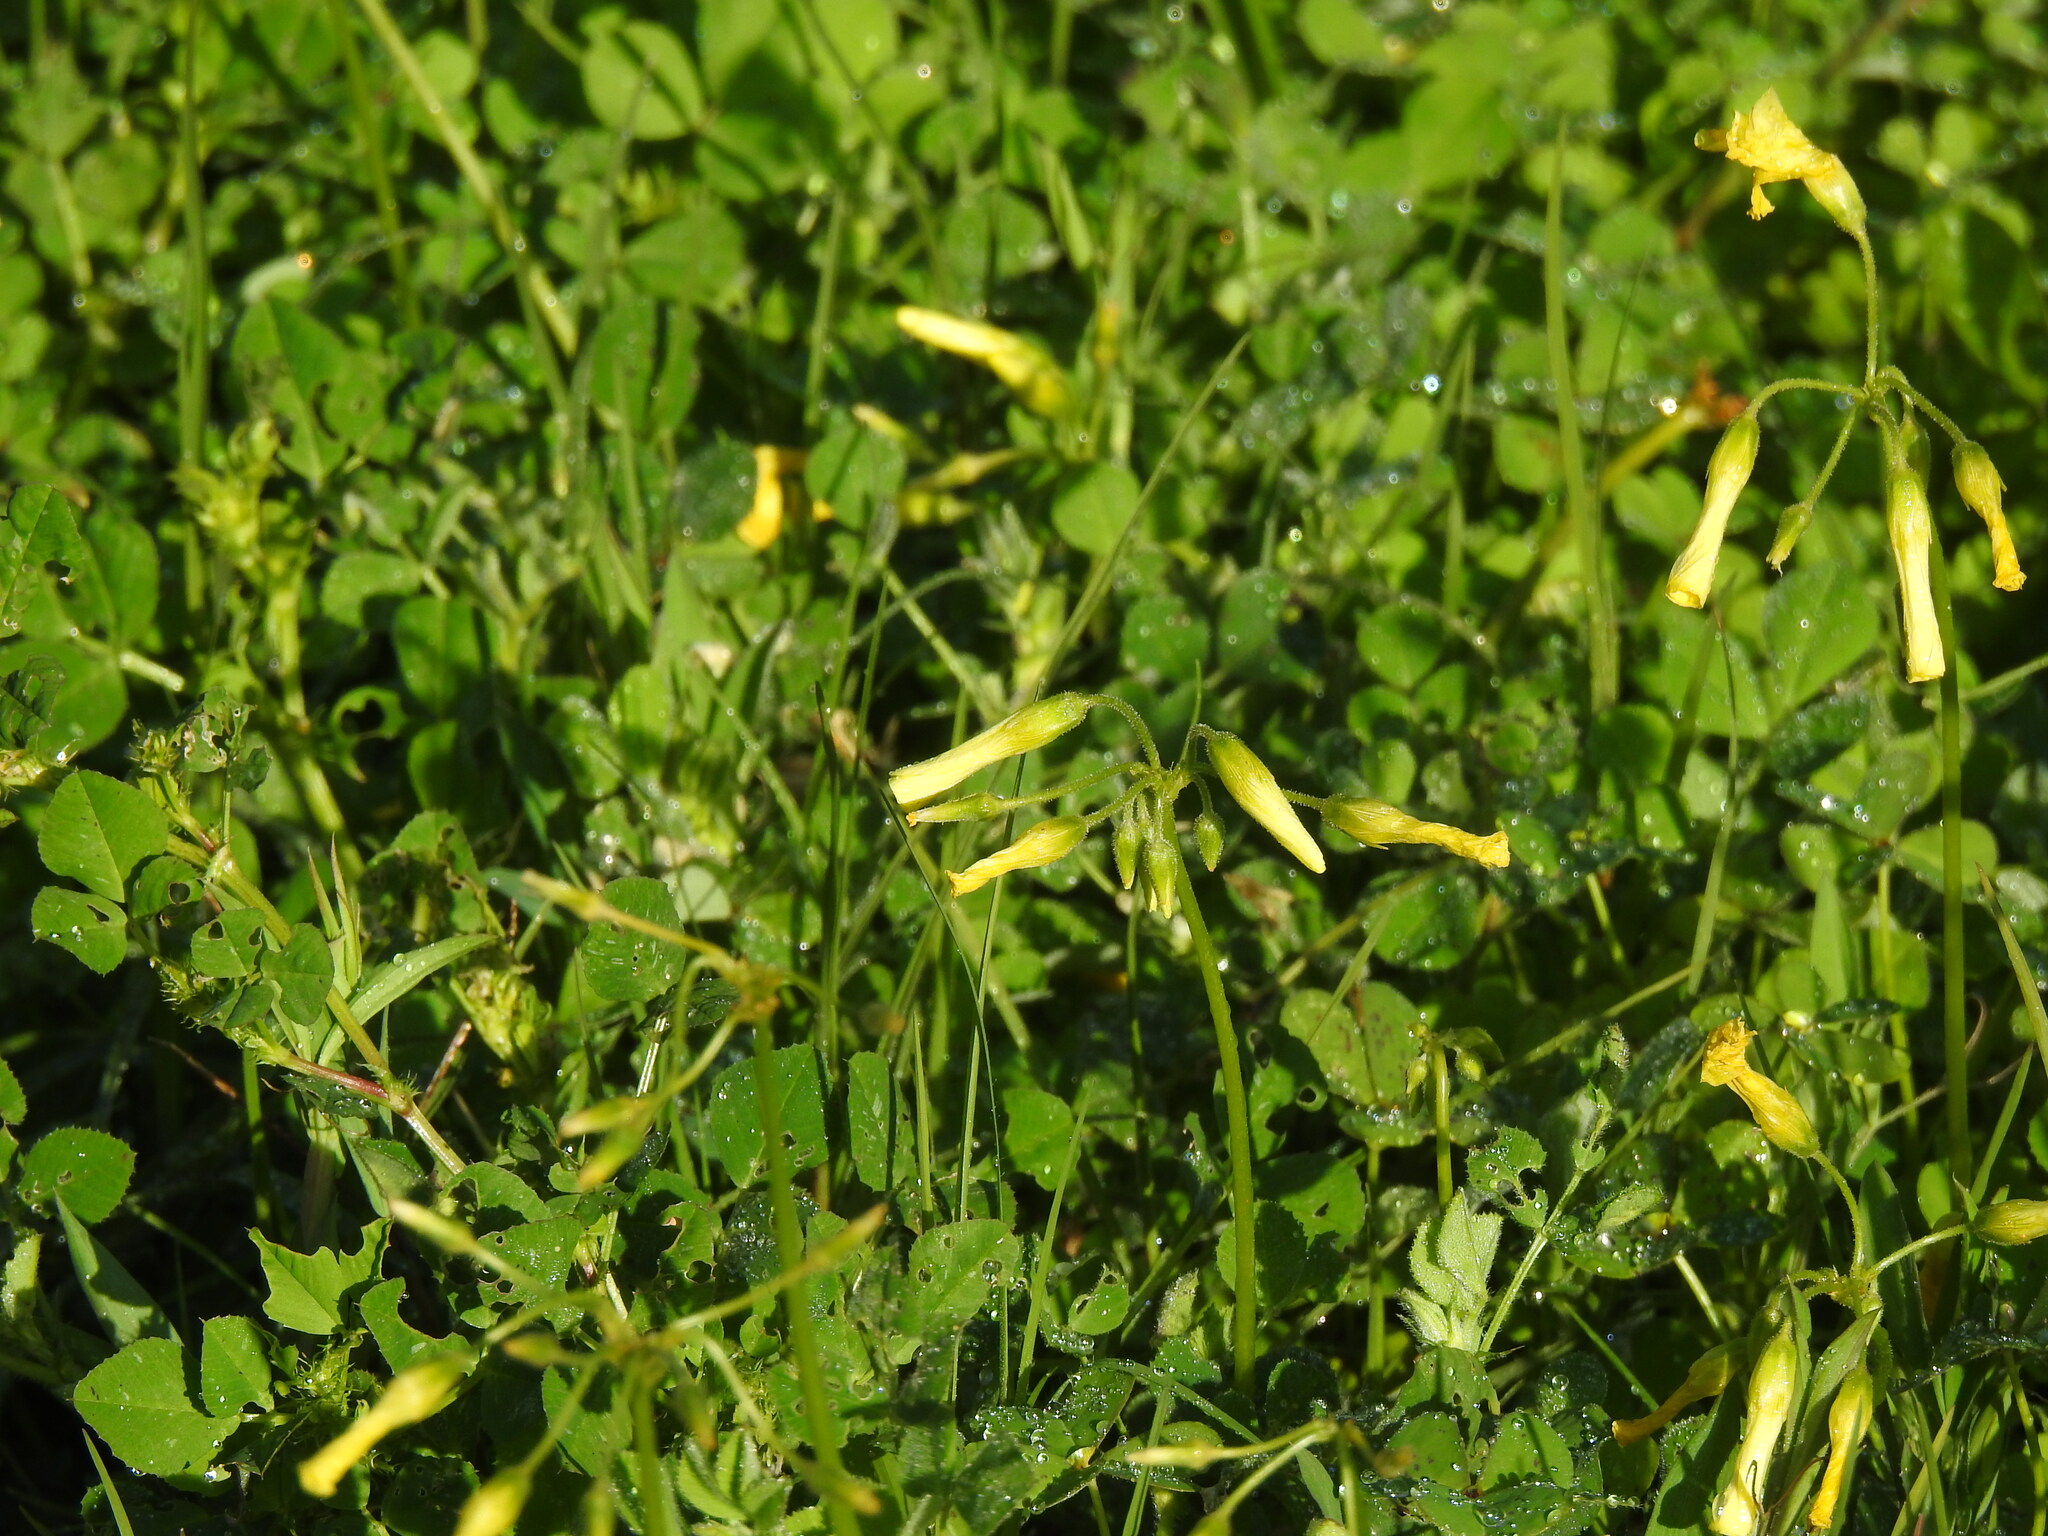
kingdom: Plantae
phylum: Tracheophyta
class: Magnoliopsida
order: Oxalidales
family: Oxalidaceae
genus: Oxalis
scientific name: Oxalis pes-caprae
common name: Bermuda-buttercup
